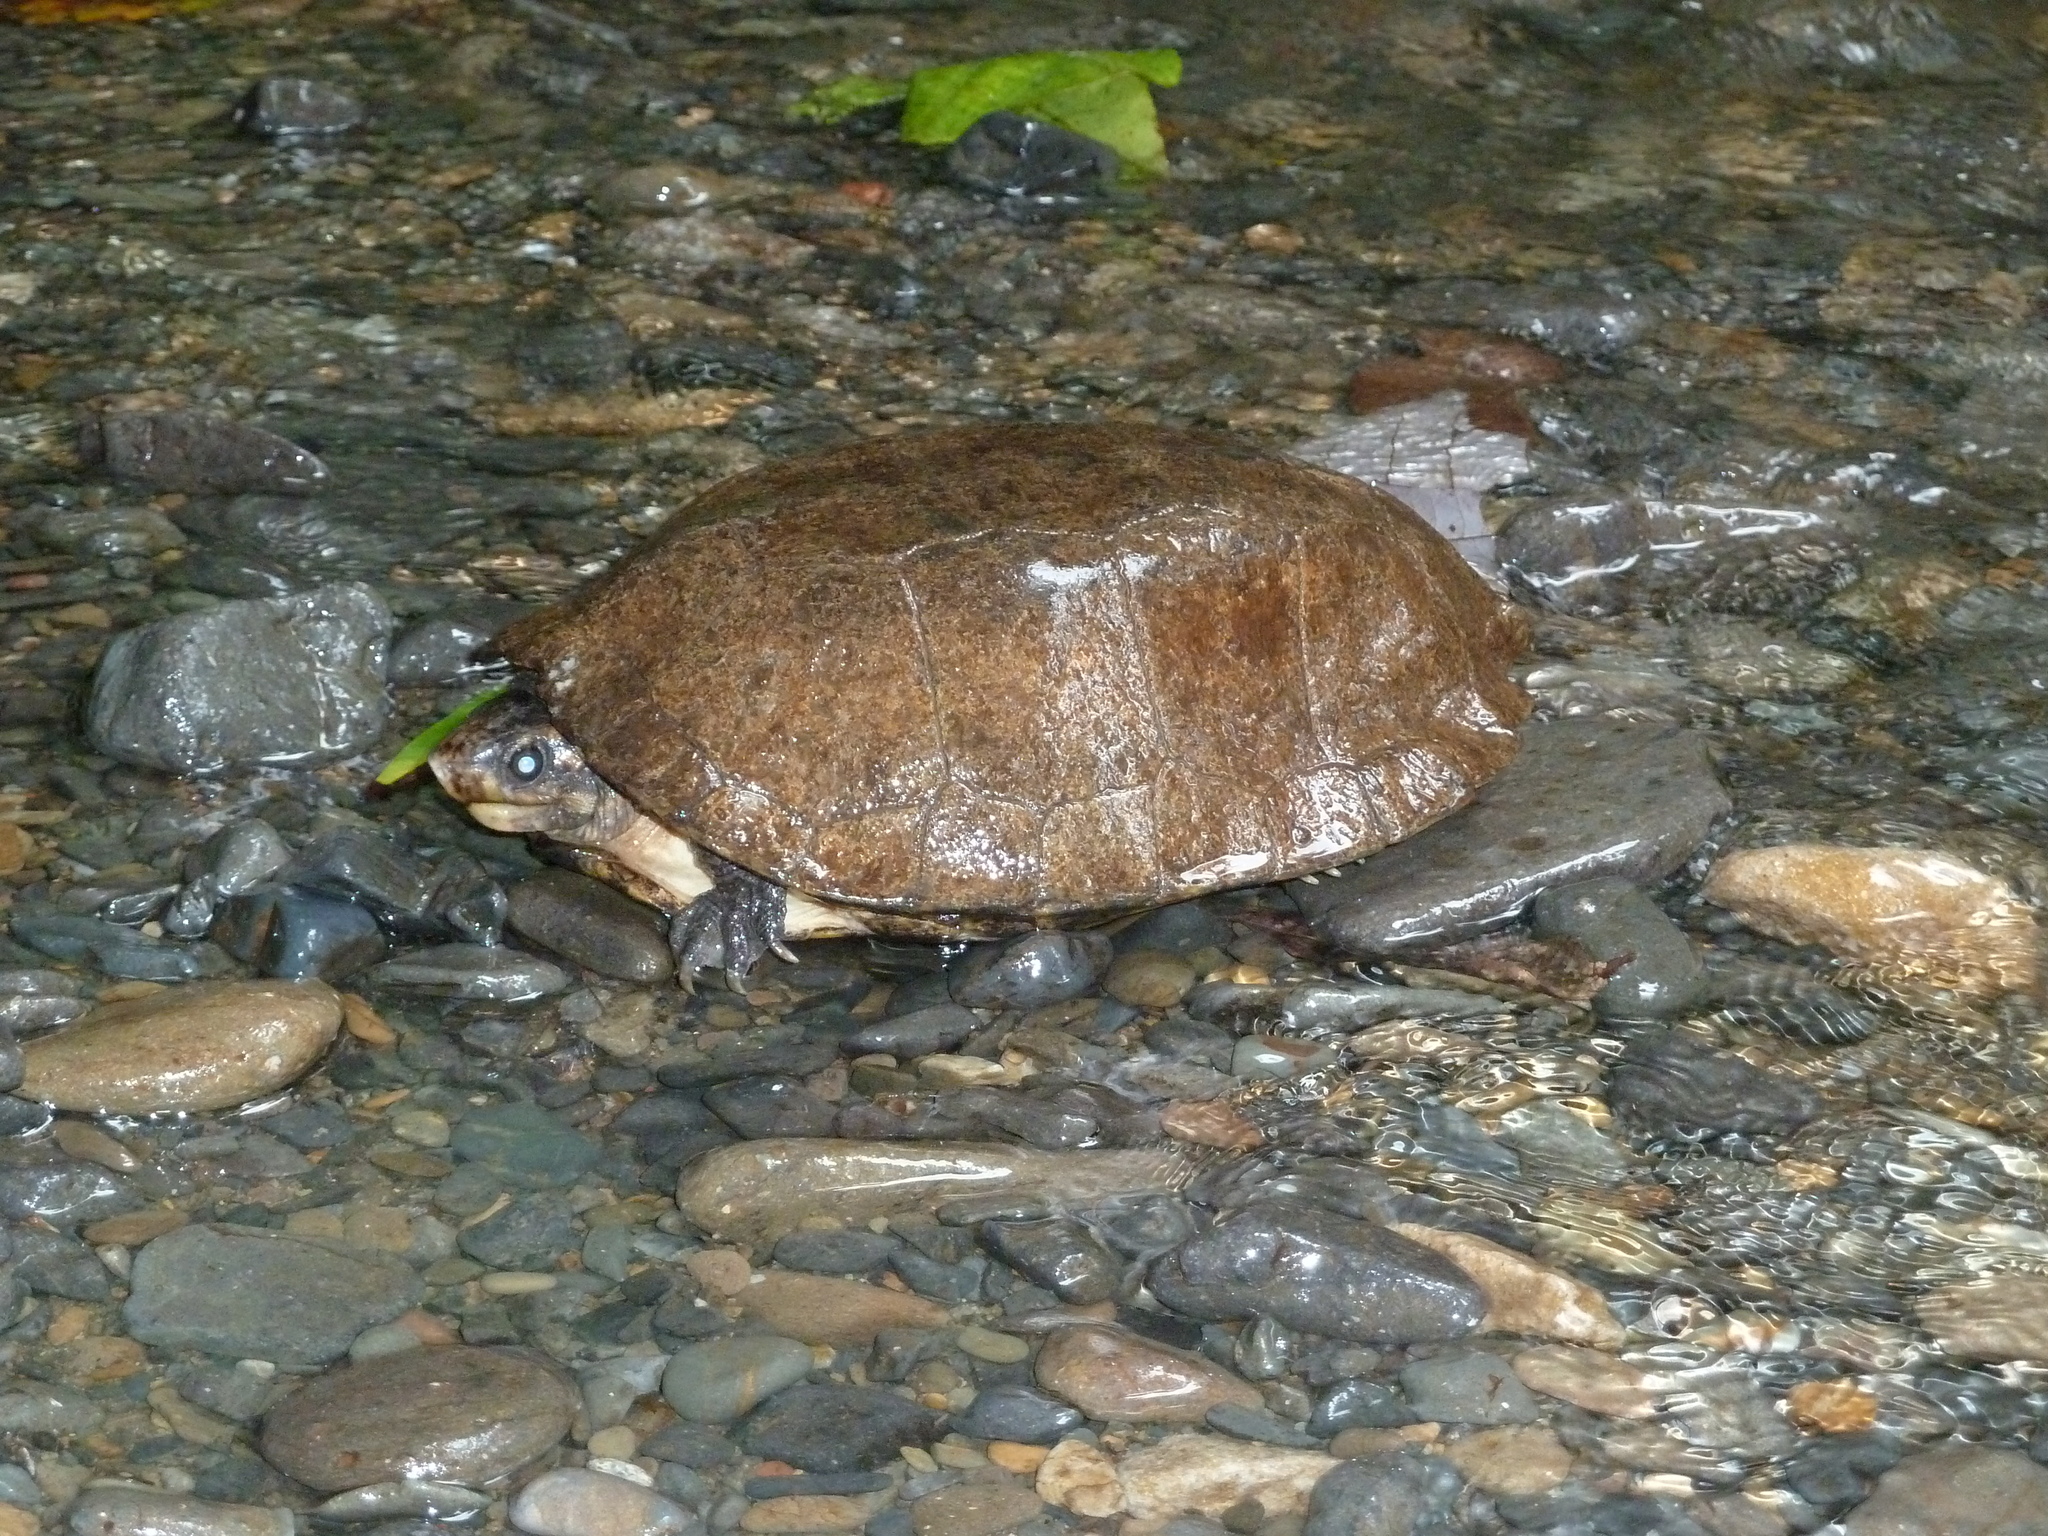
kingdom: Animalia
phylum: Chordata
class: Testudines
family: Geoemydidae
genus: Notochelys
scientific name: Notochelys platynota
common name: Malayan flat-shelled turtle
